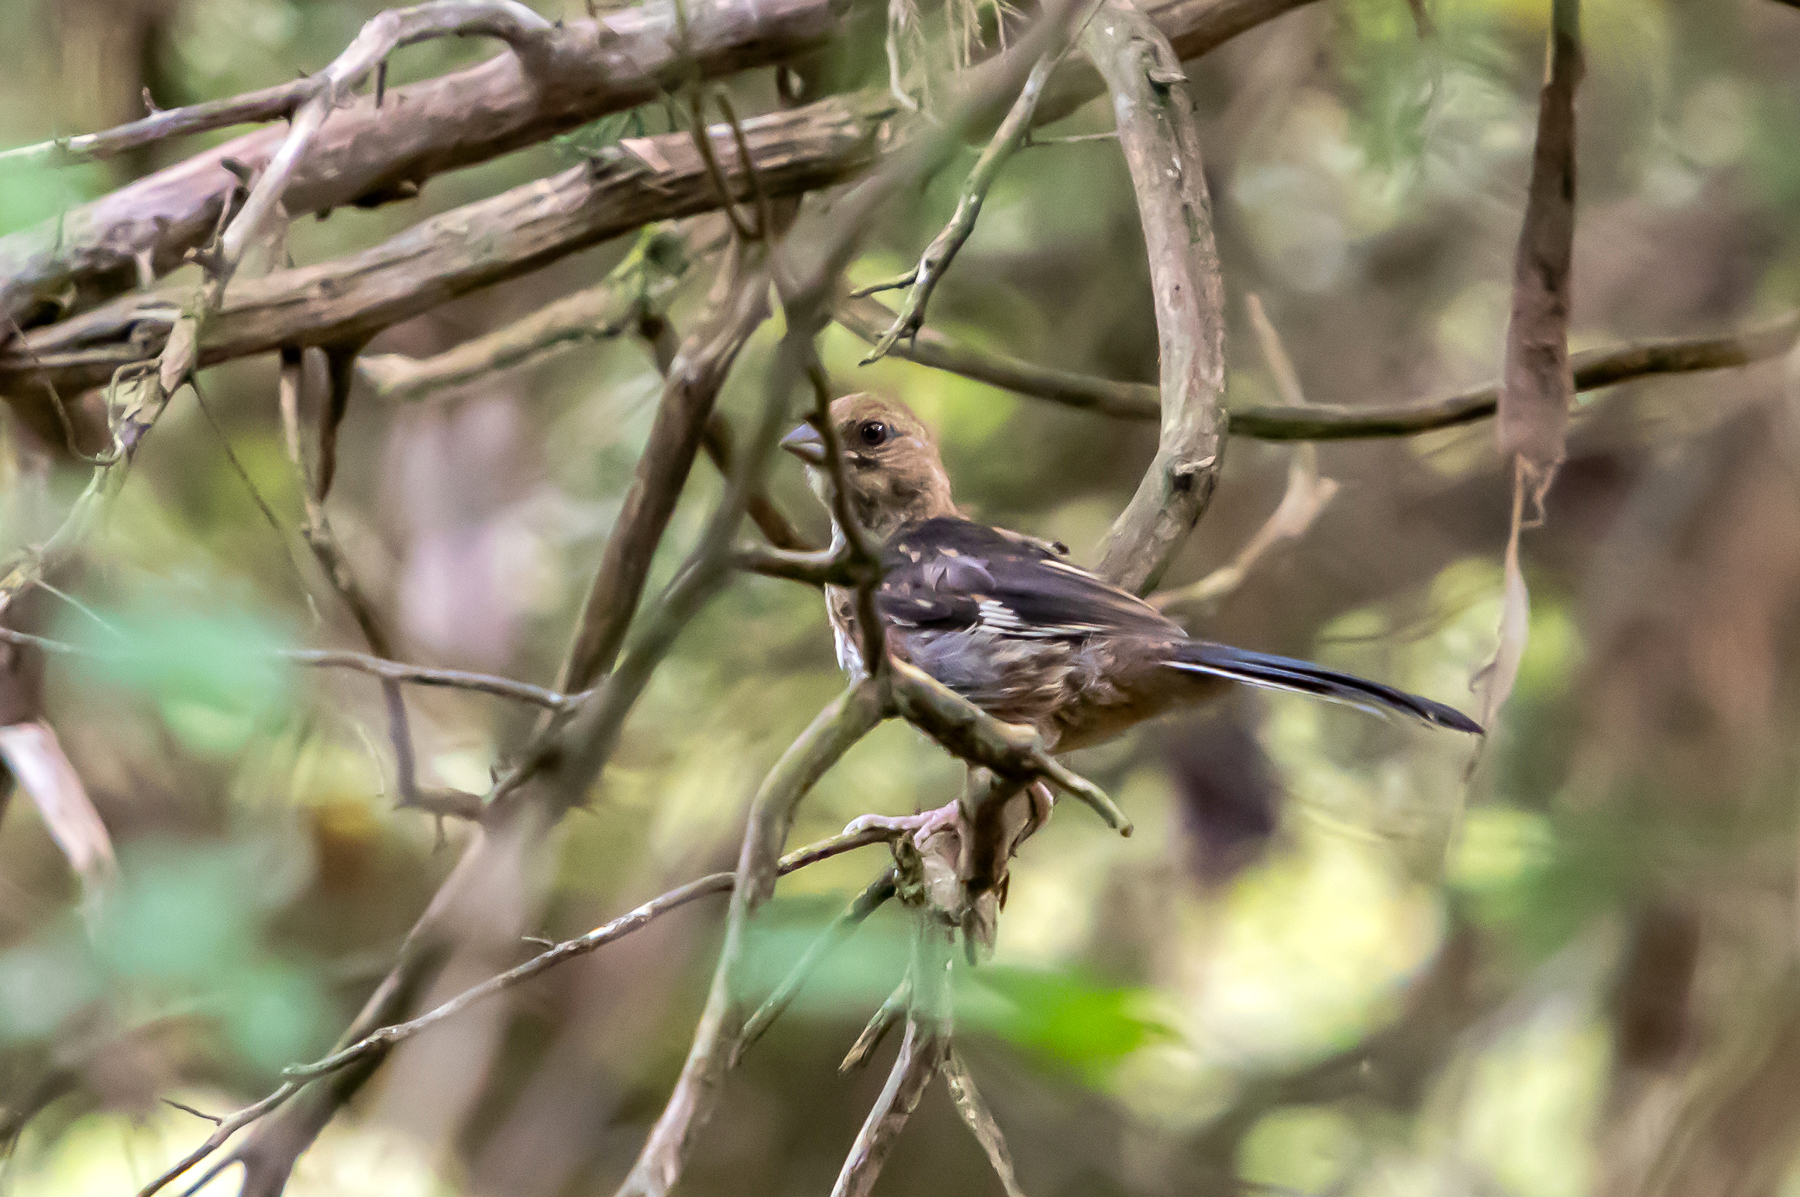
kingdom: Animalia
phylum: Chordata
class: Aves
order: Passeriformes
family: Passerellidae
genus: Pipilo
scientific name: Pipilo erythrophthalmus
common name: Eastern towhee
